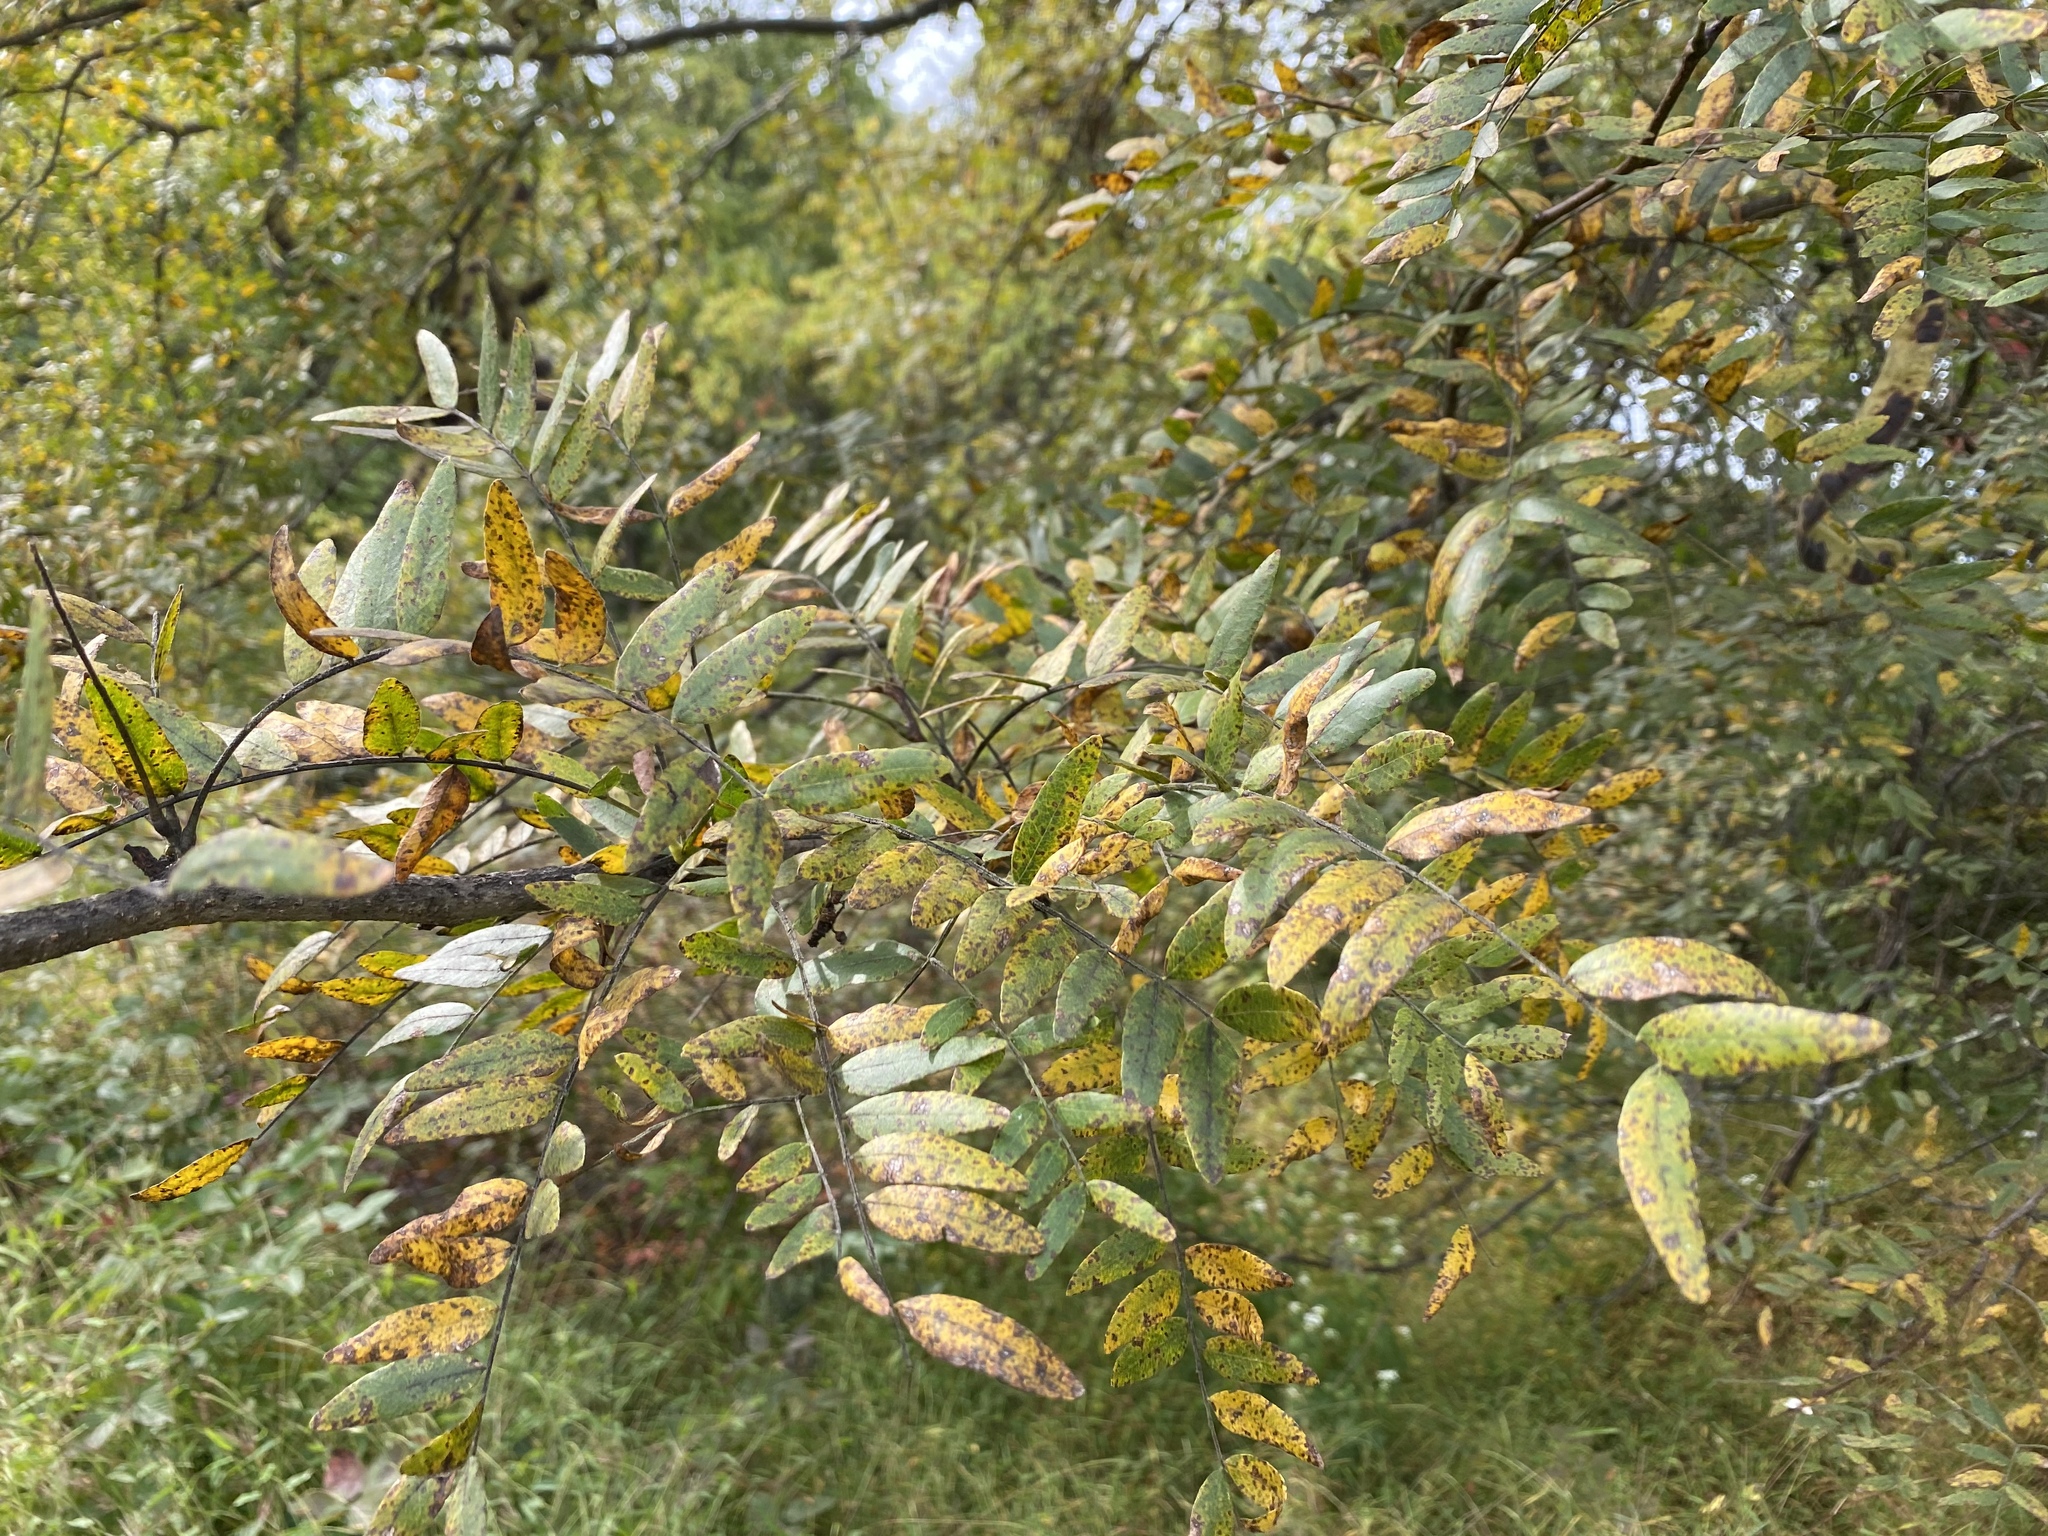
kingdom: Plantae
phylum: Tracheophyta
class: Magnoliopsida
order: Fabales
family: Fabaceae
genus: Gleditsia
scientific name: Gleditsia triacanthos
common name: Common honeylocust
